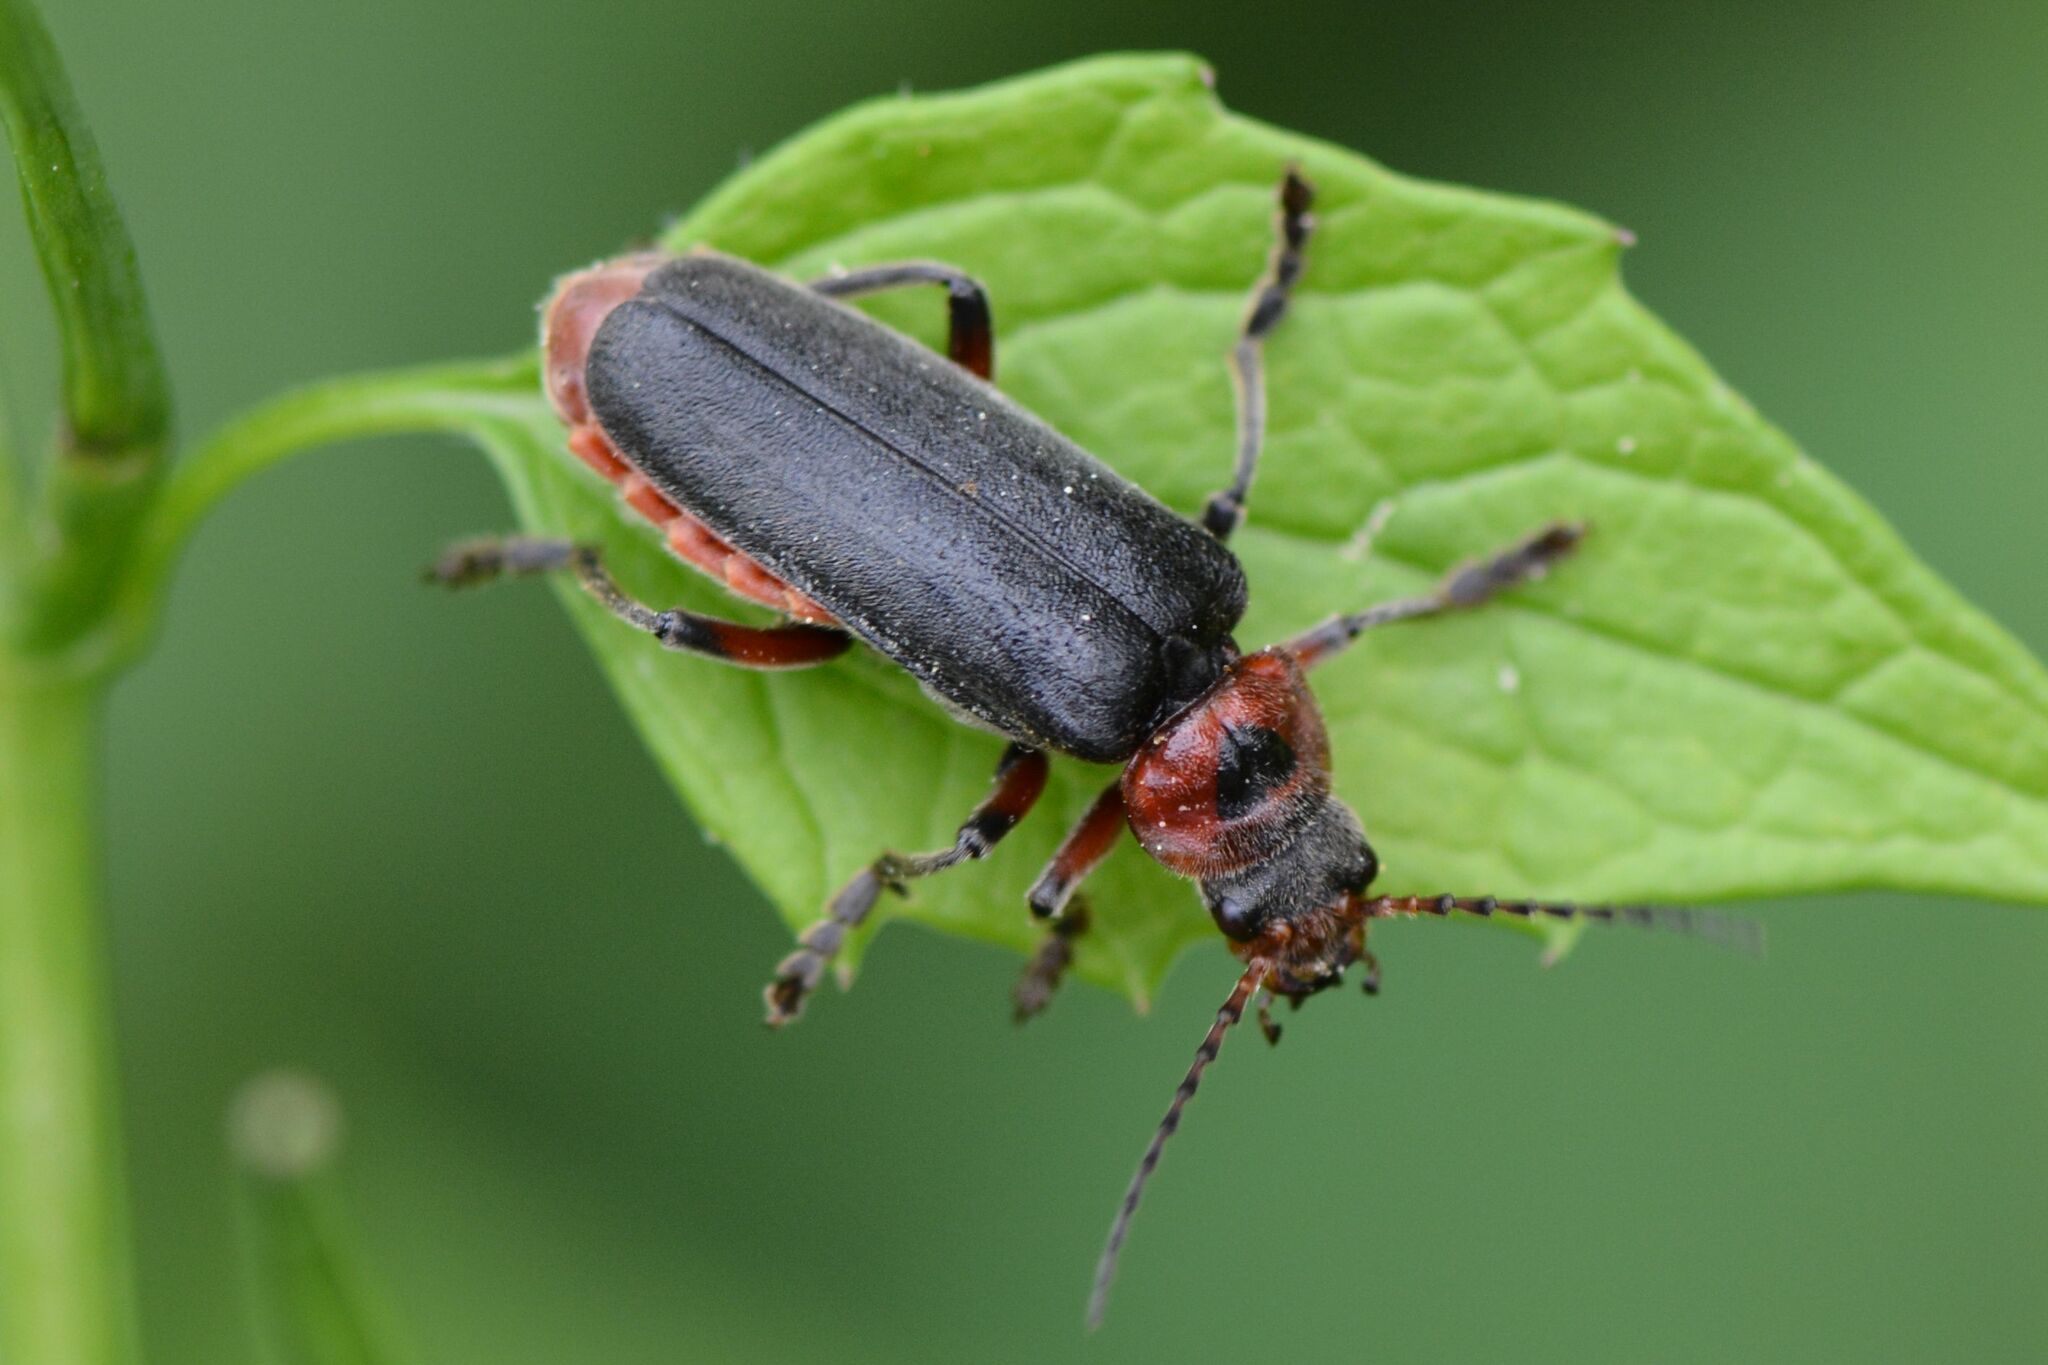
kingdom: Animalia
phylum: Arthropoda
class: Insecta
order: Coleoptera
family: Cantharidae
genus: Cantharis
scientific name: Cantharis rustica
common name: Soldier beetle
